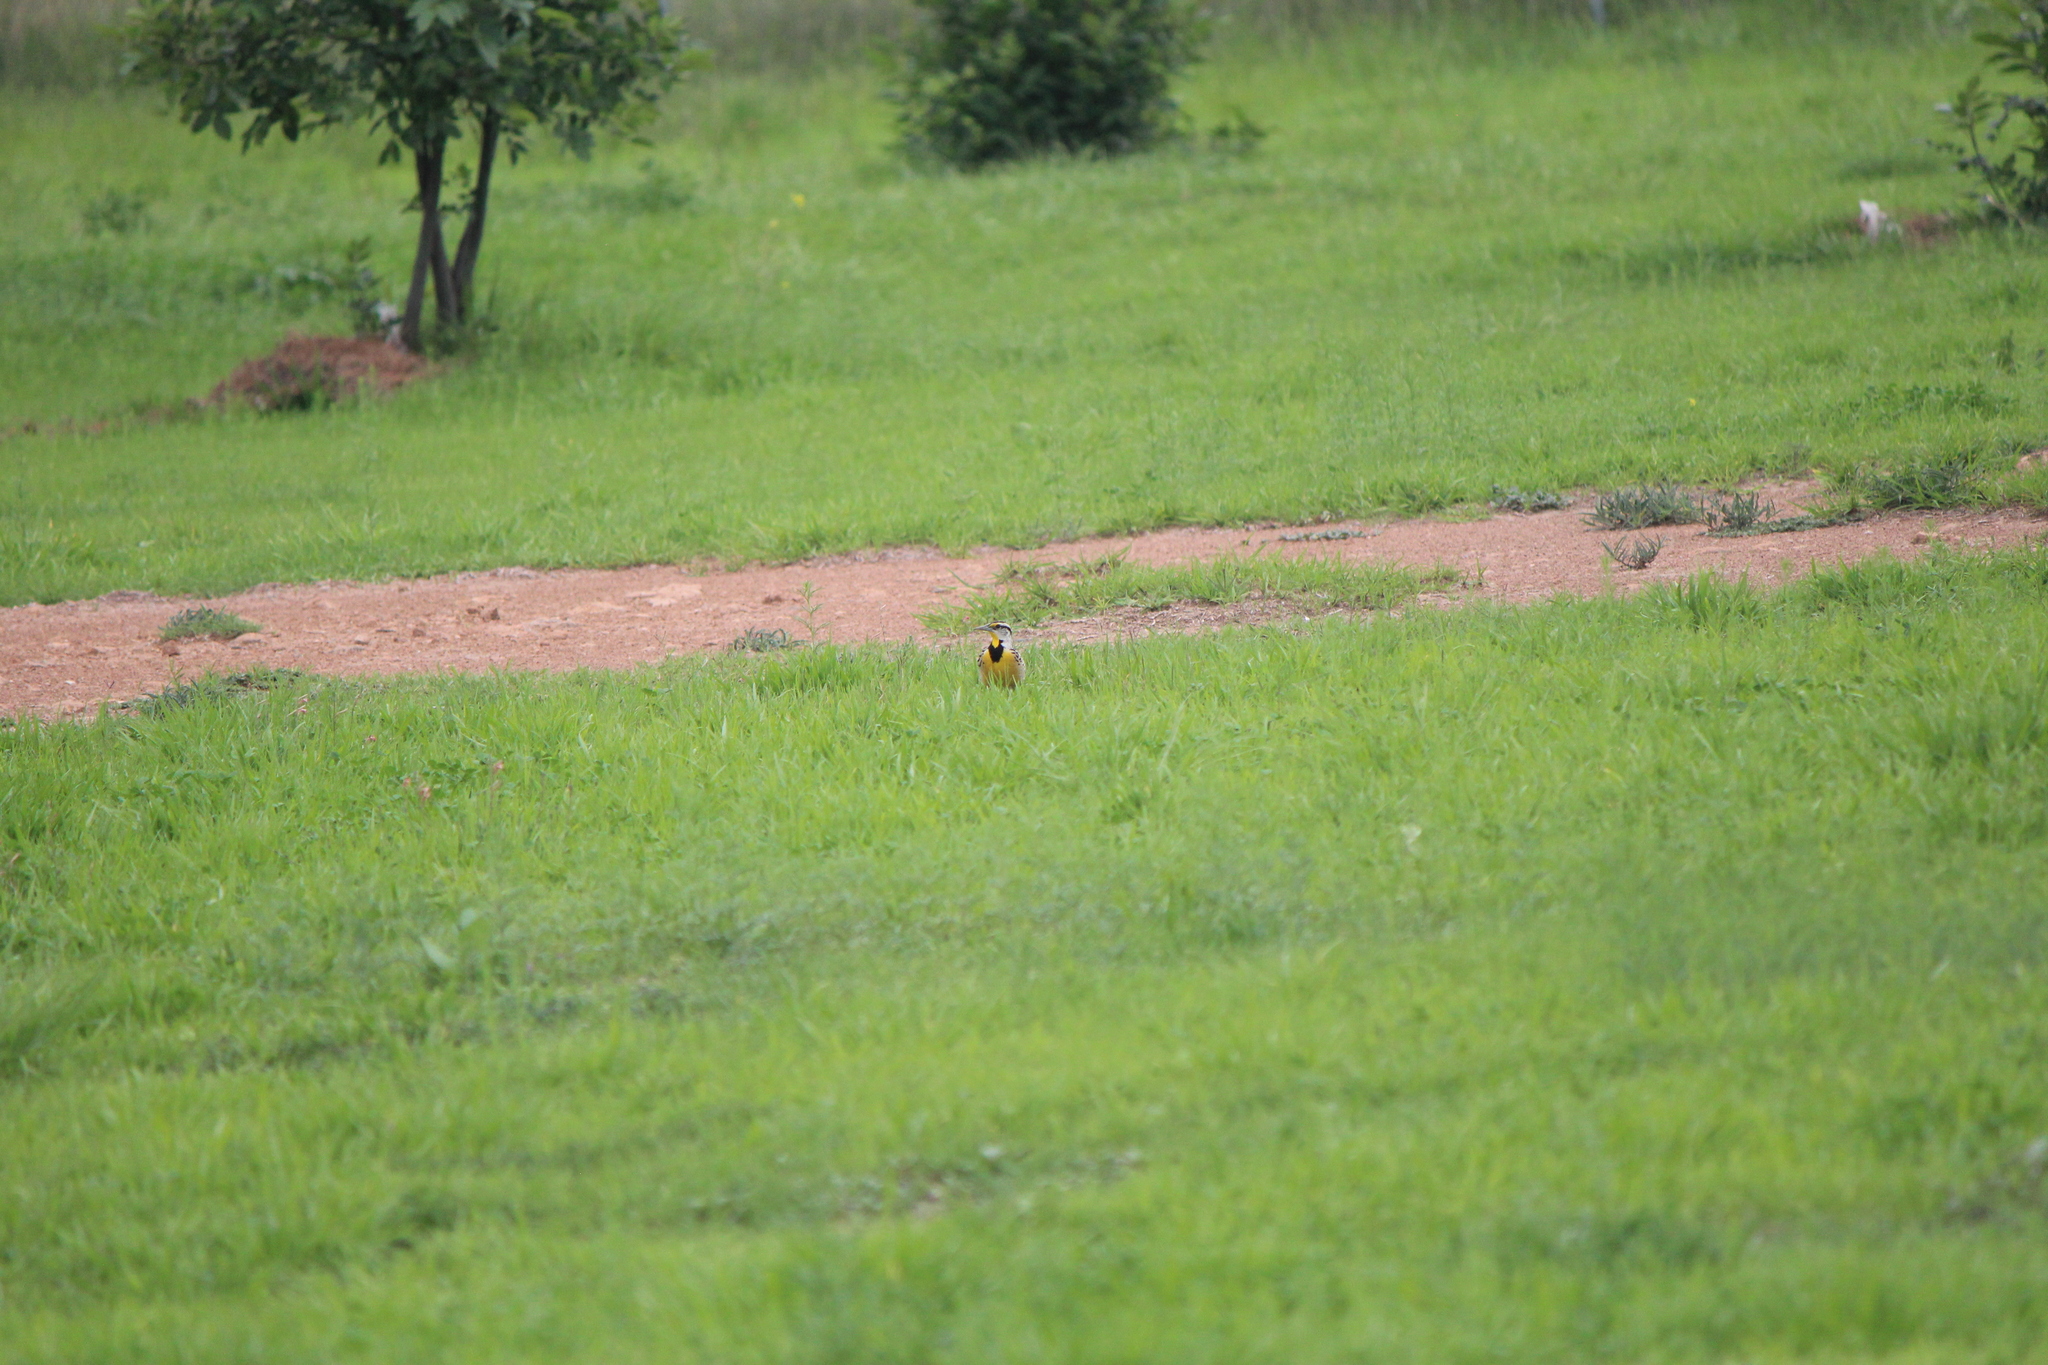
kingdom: Animalia
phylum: Chordata
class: Aves
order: Passeriformes
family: Icteridae
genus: Sturnella
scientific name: Sturnella lilianae
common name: Lilian's meadowlark
